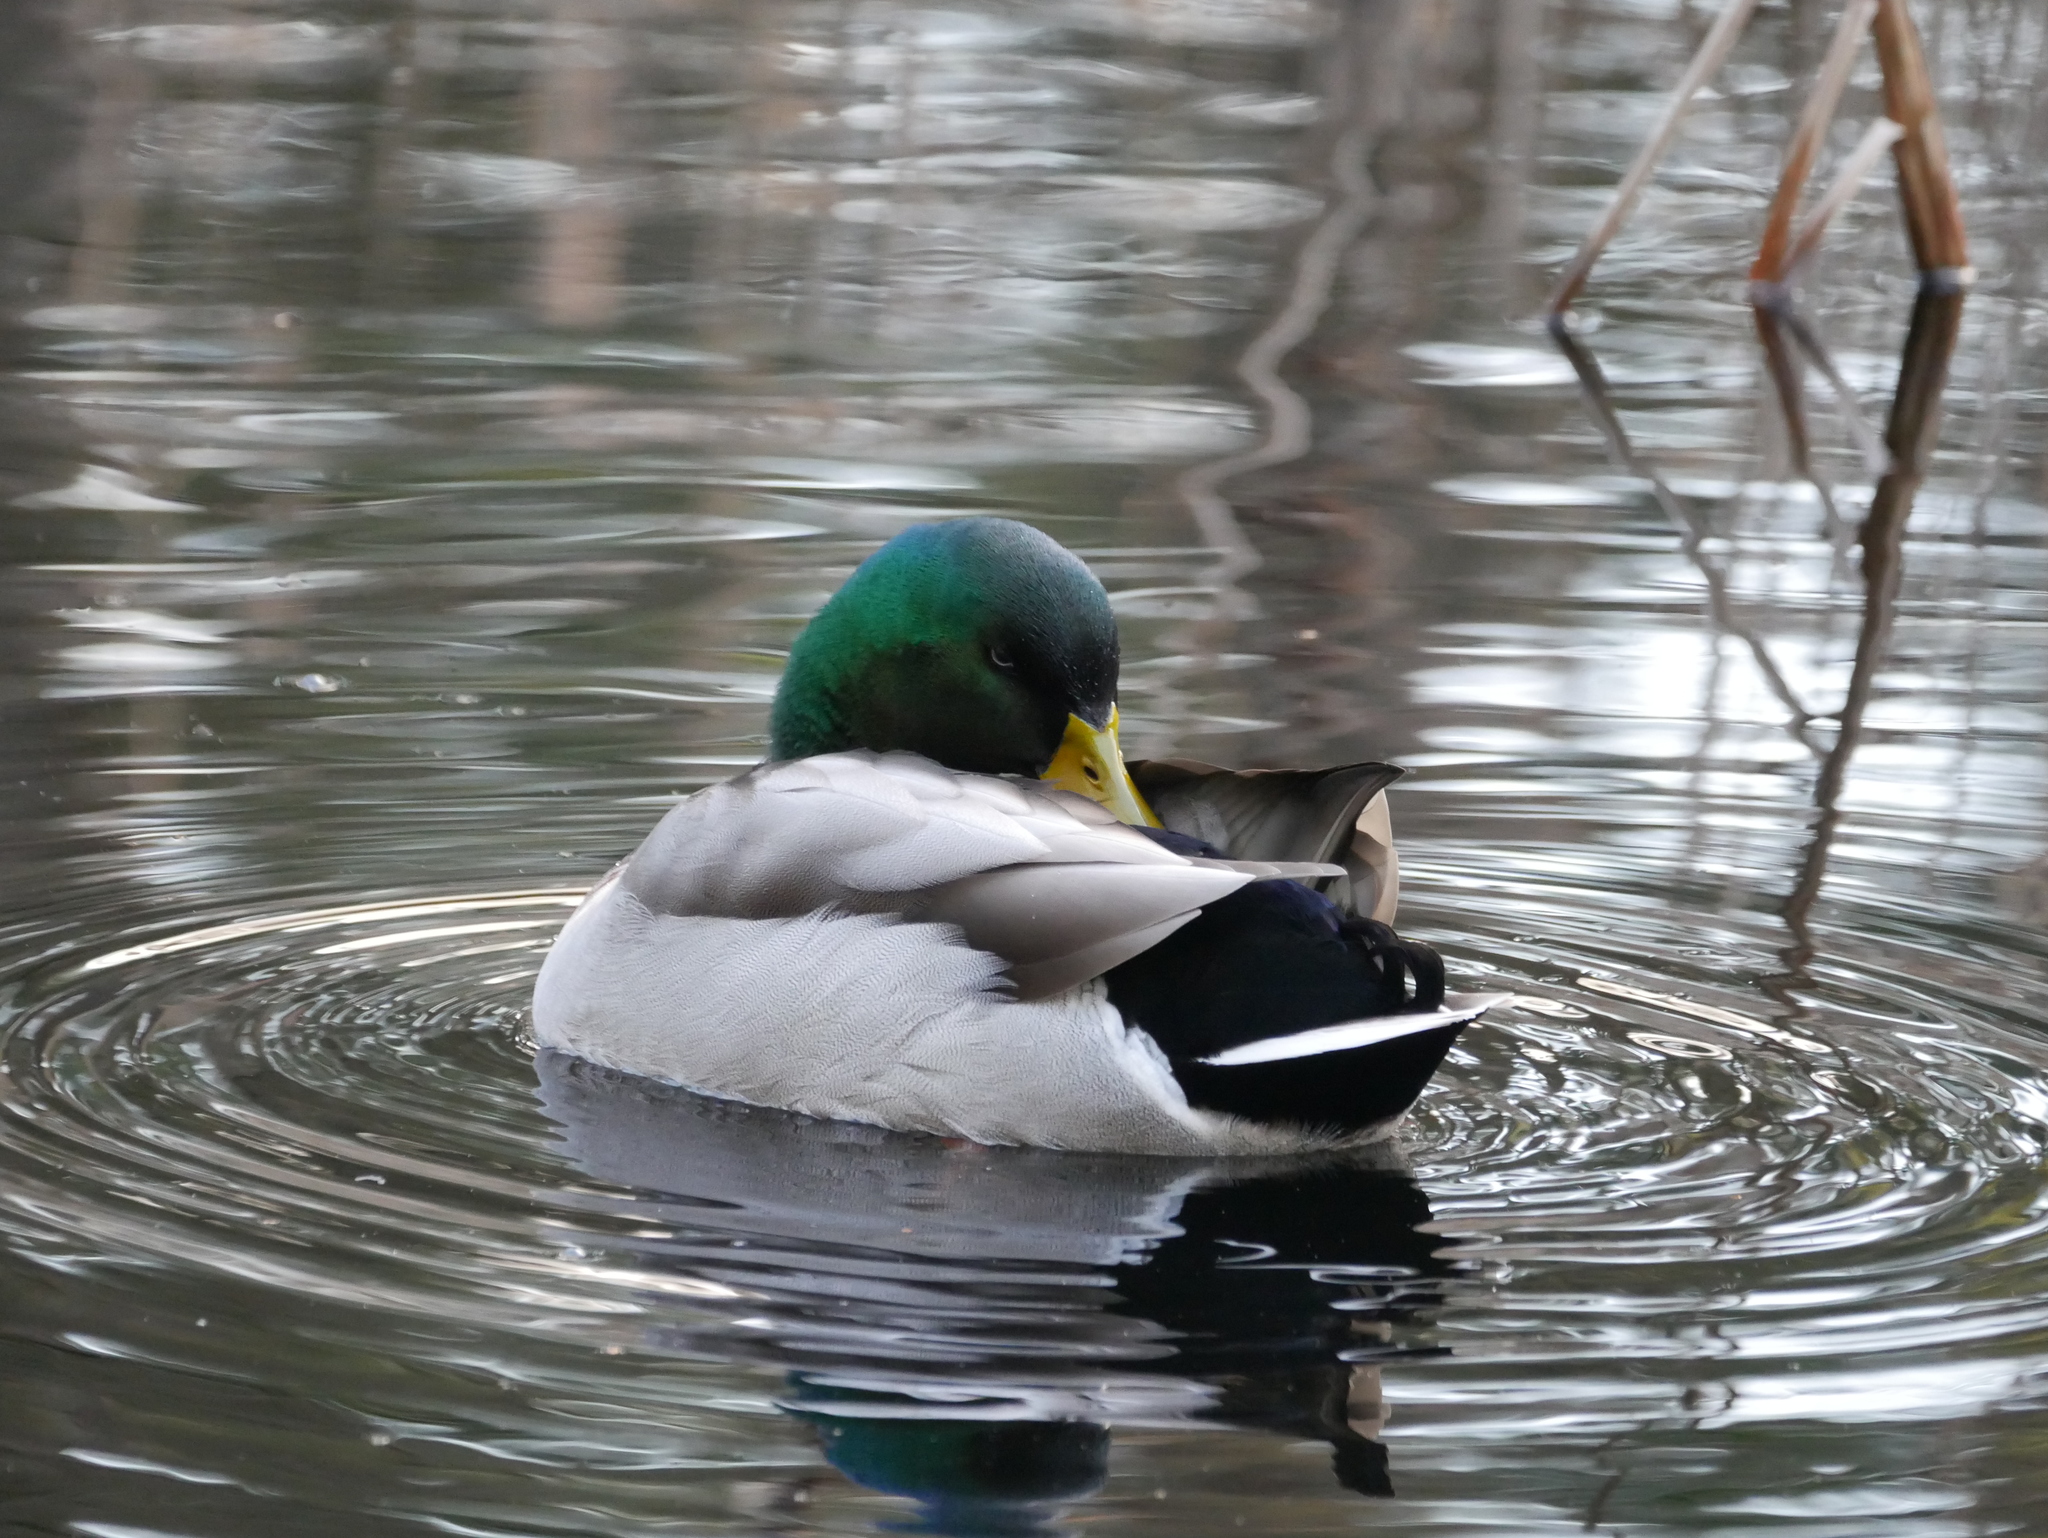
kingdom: Animalia
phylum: Chordata
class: Aves
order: Anseriformes
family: Anatidae
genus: Anas
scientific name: Anas platyrhynchos
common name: Mallard
